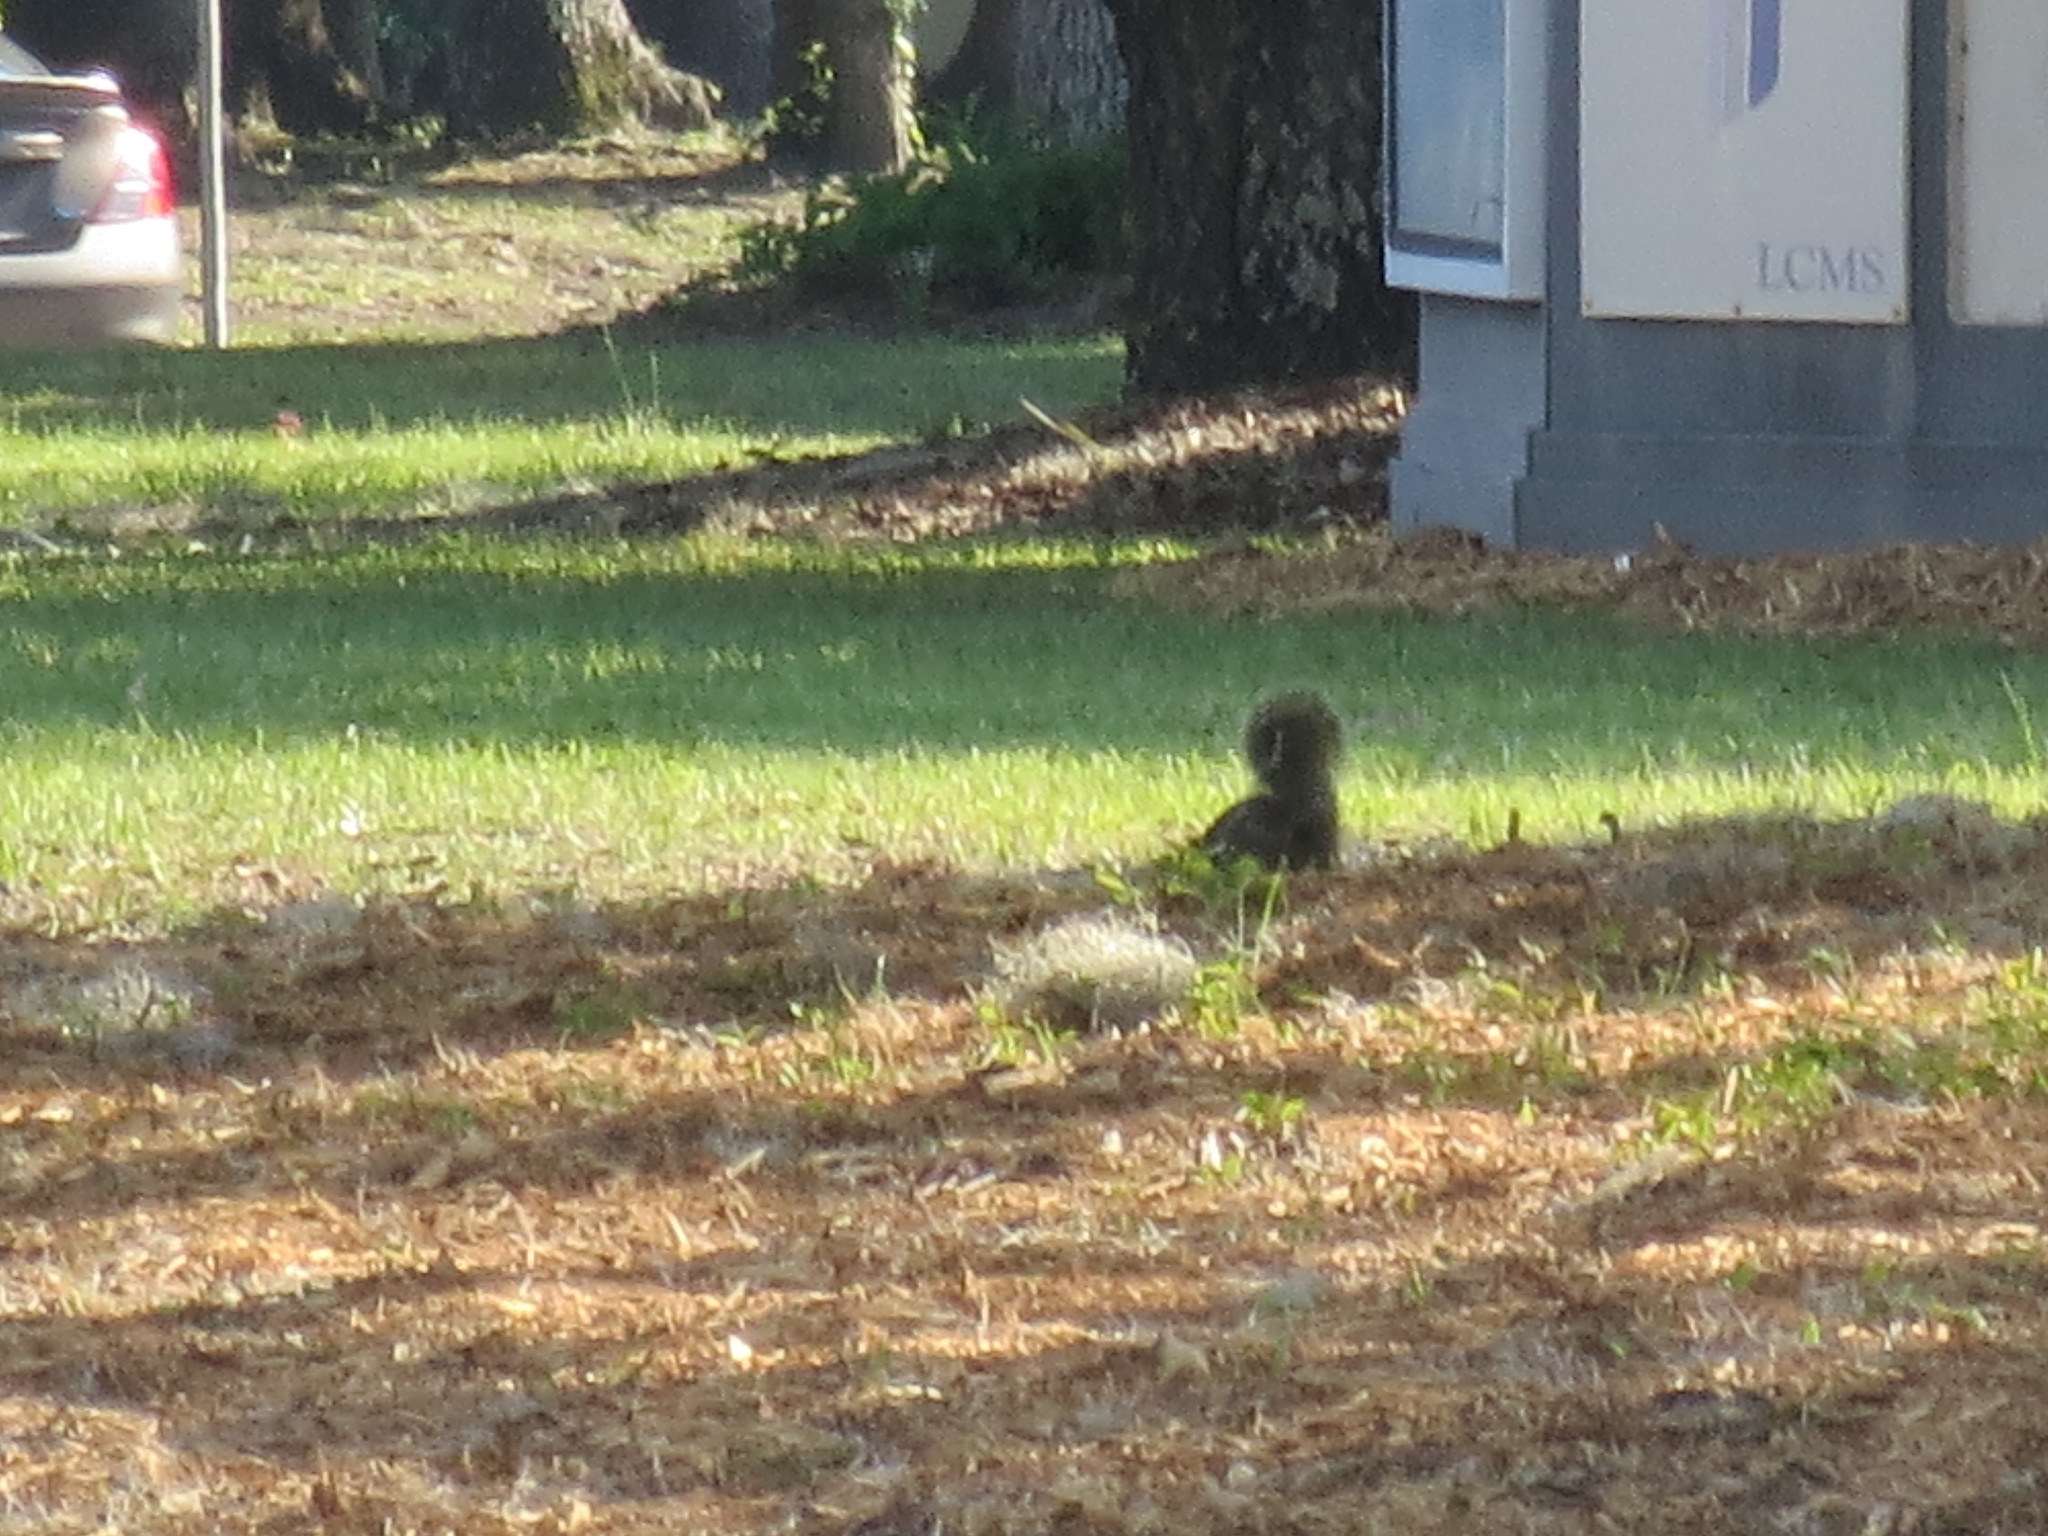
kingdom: Animalia
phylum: Chordata
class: Mammalia
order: Rodentia
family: Sciuridae
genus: Sciurus
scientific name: Sciurus carolinensis
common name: Eastern gray squirrel
